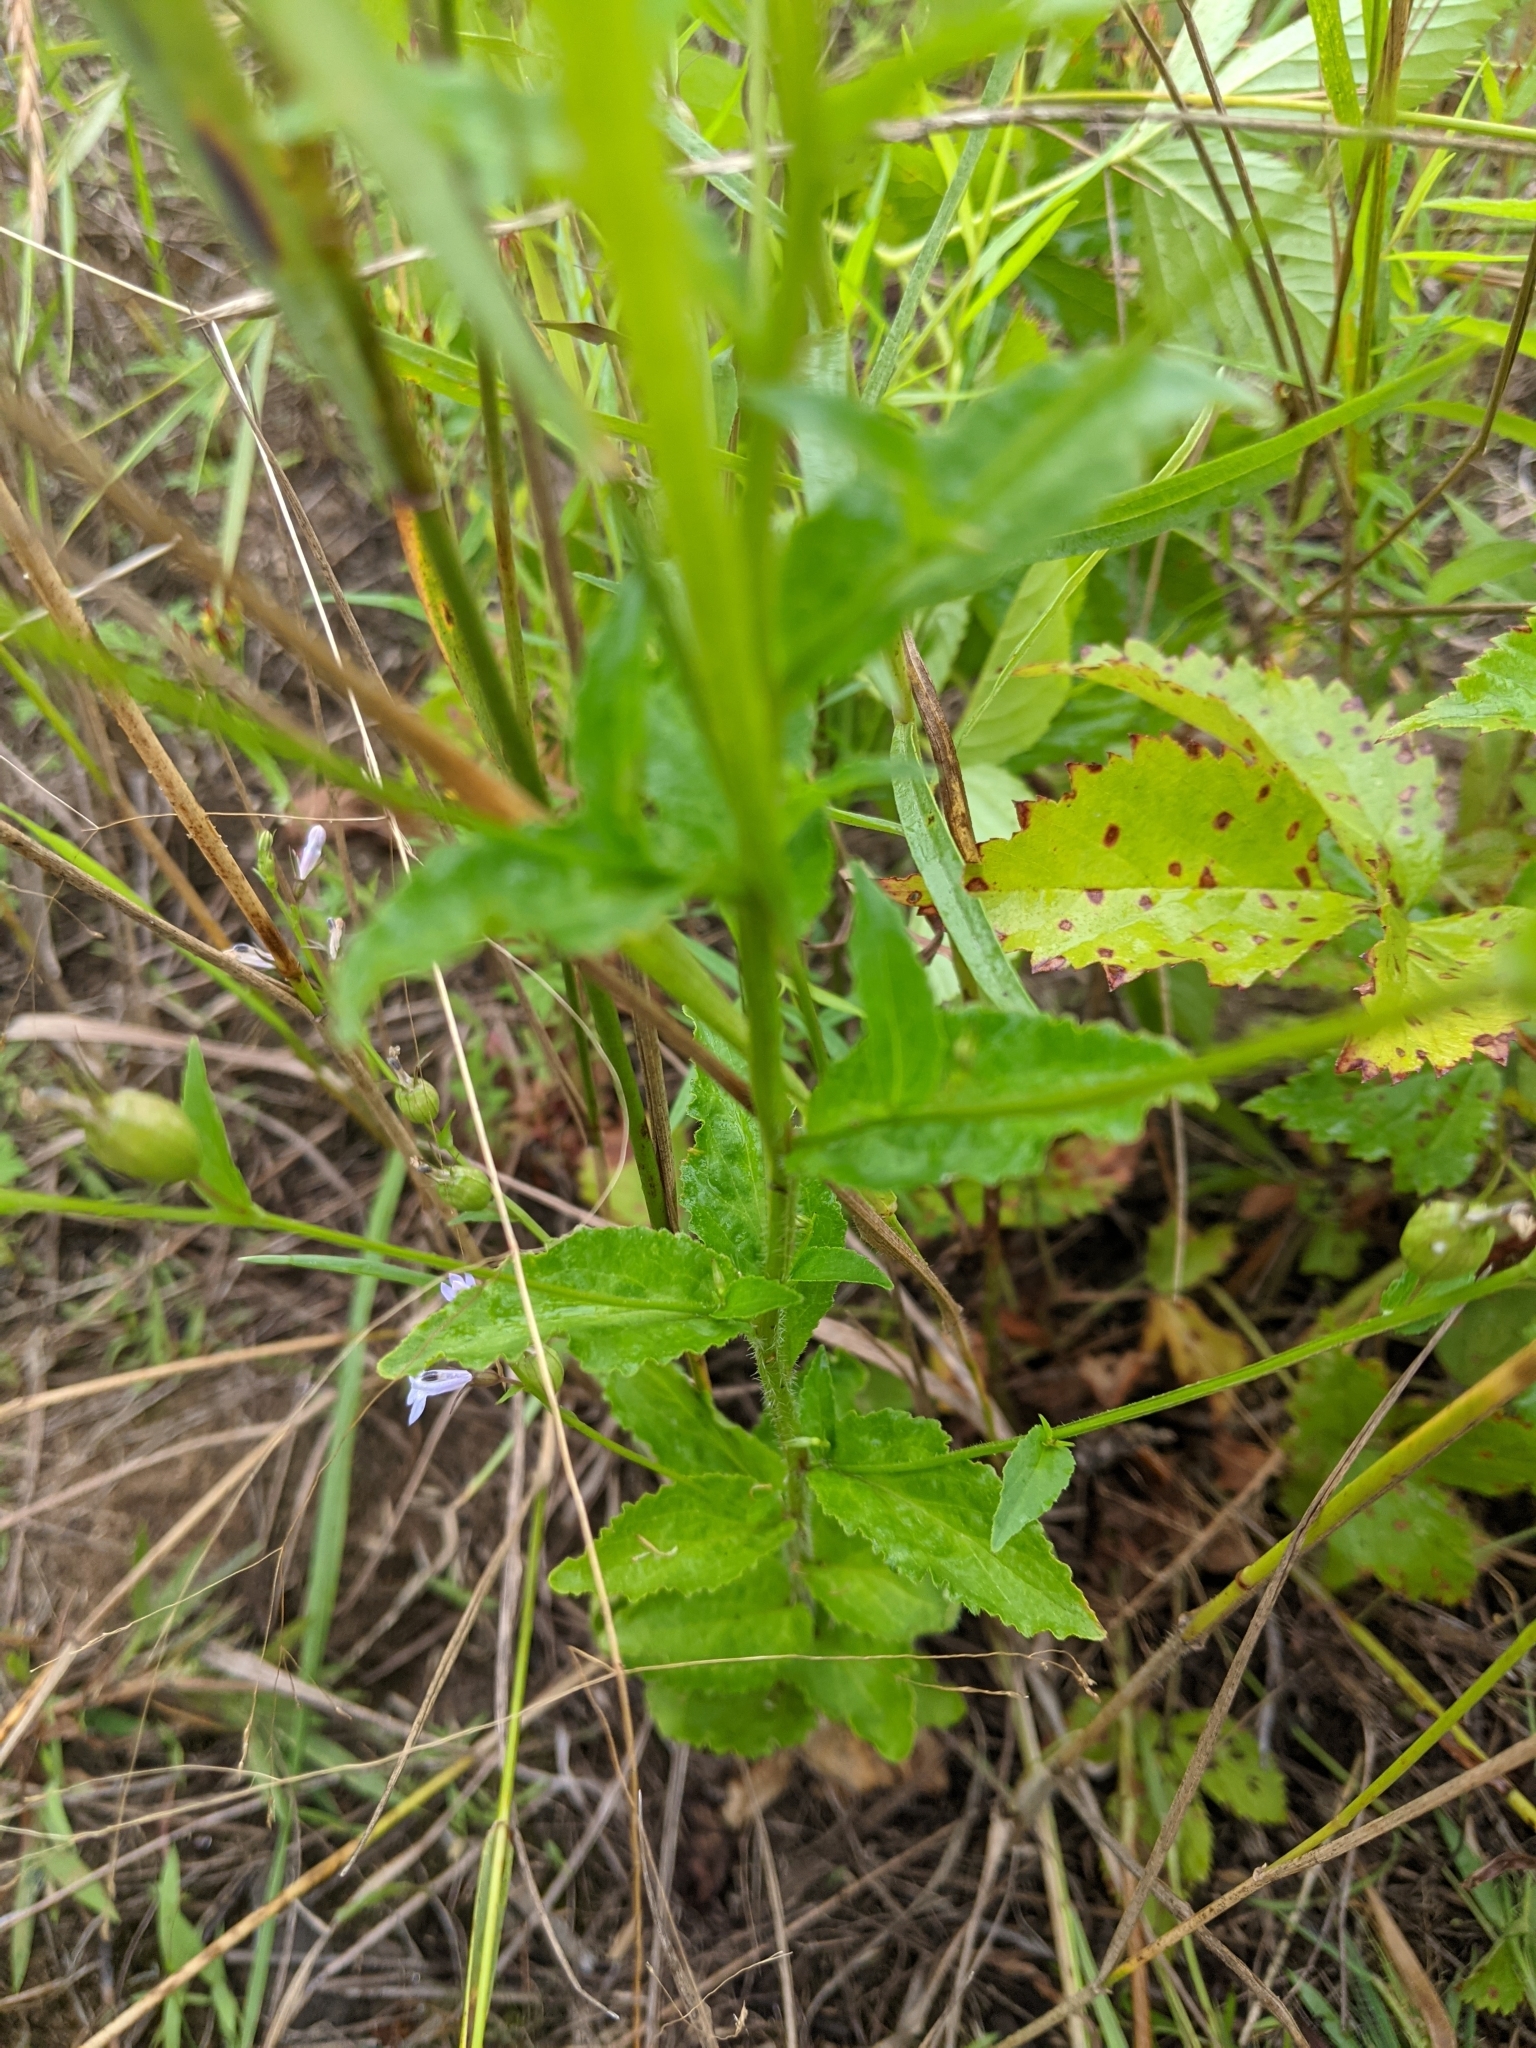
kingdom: Plantae
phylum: Tracheophyta
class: Magnoliopsida
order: Asterales
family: Campanulaceae
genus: Lobelia
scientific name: Lobelia inflata
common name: Indian tobacco
